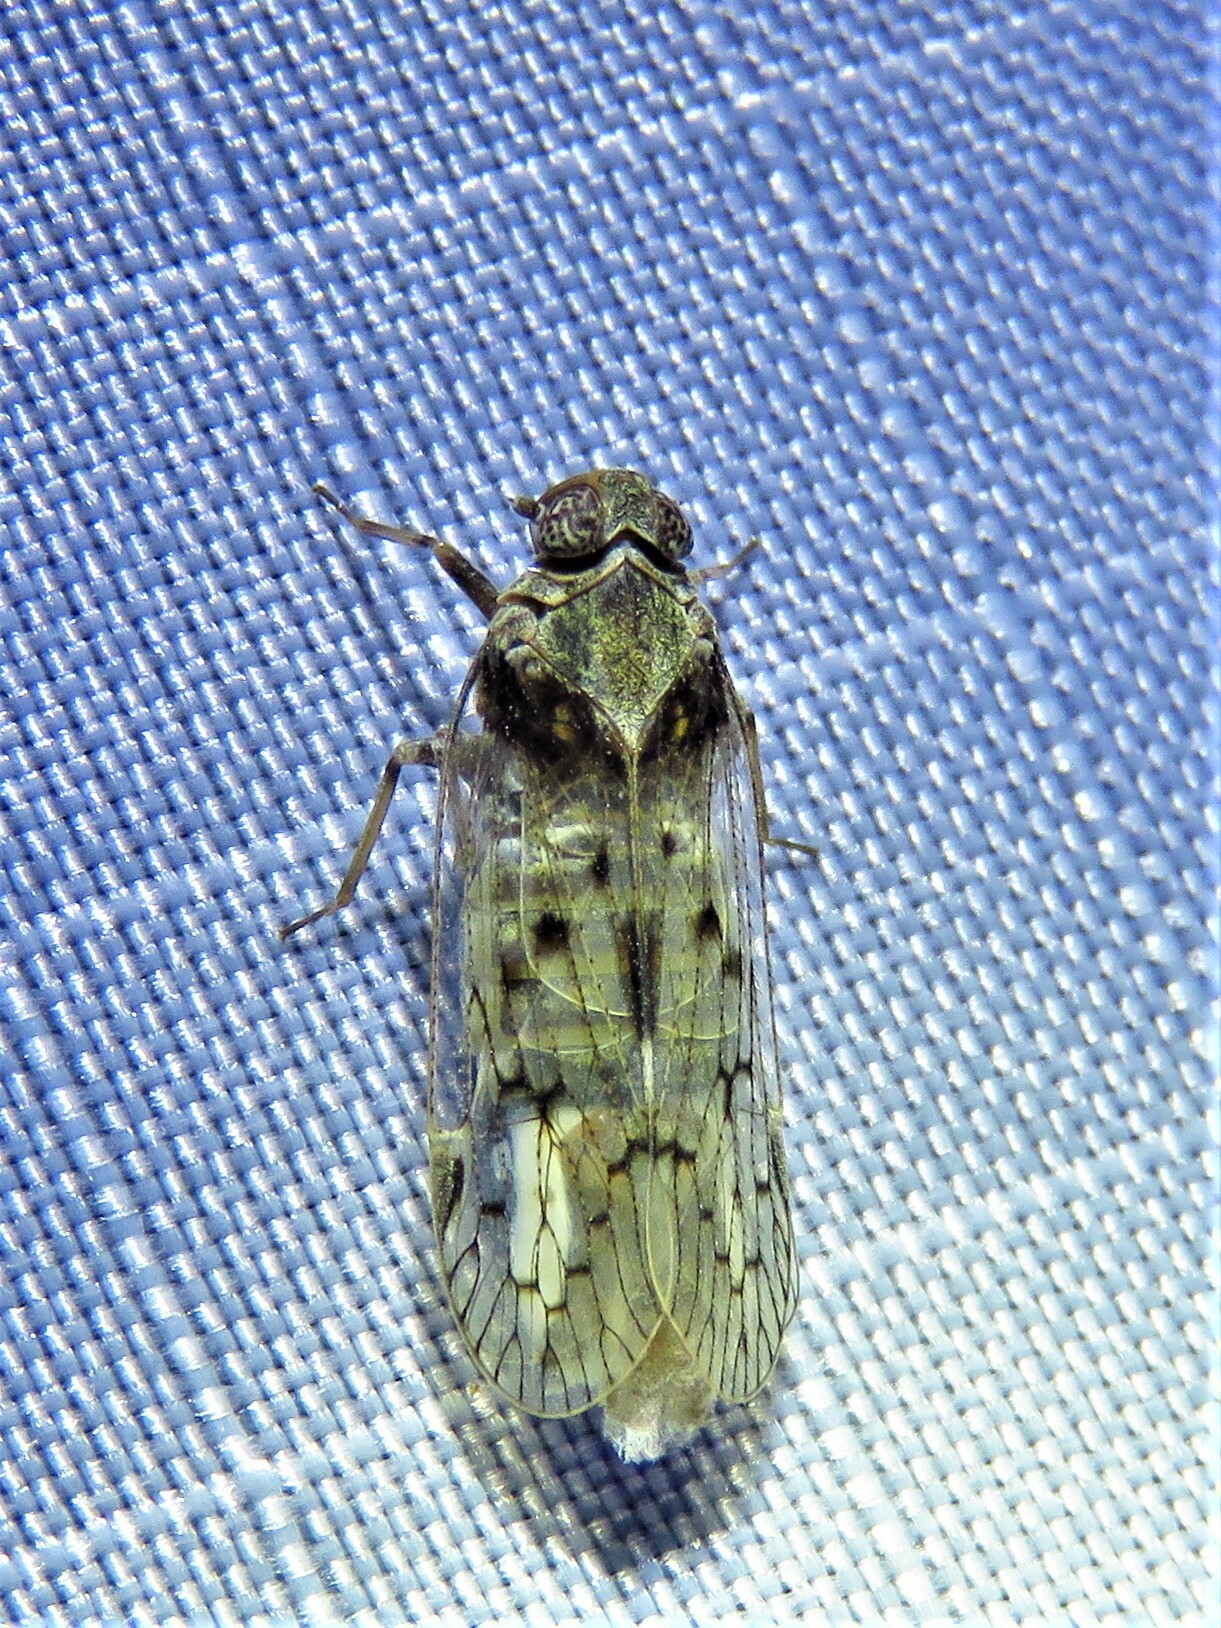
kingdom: Animalia
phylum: Arthropoda
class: Insecta
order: Hemiptera
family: Cixiidae
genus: Melanoliarus
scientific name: Melanoliarus aridus
